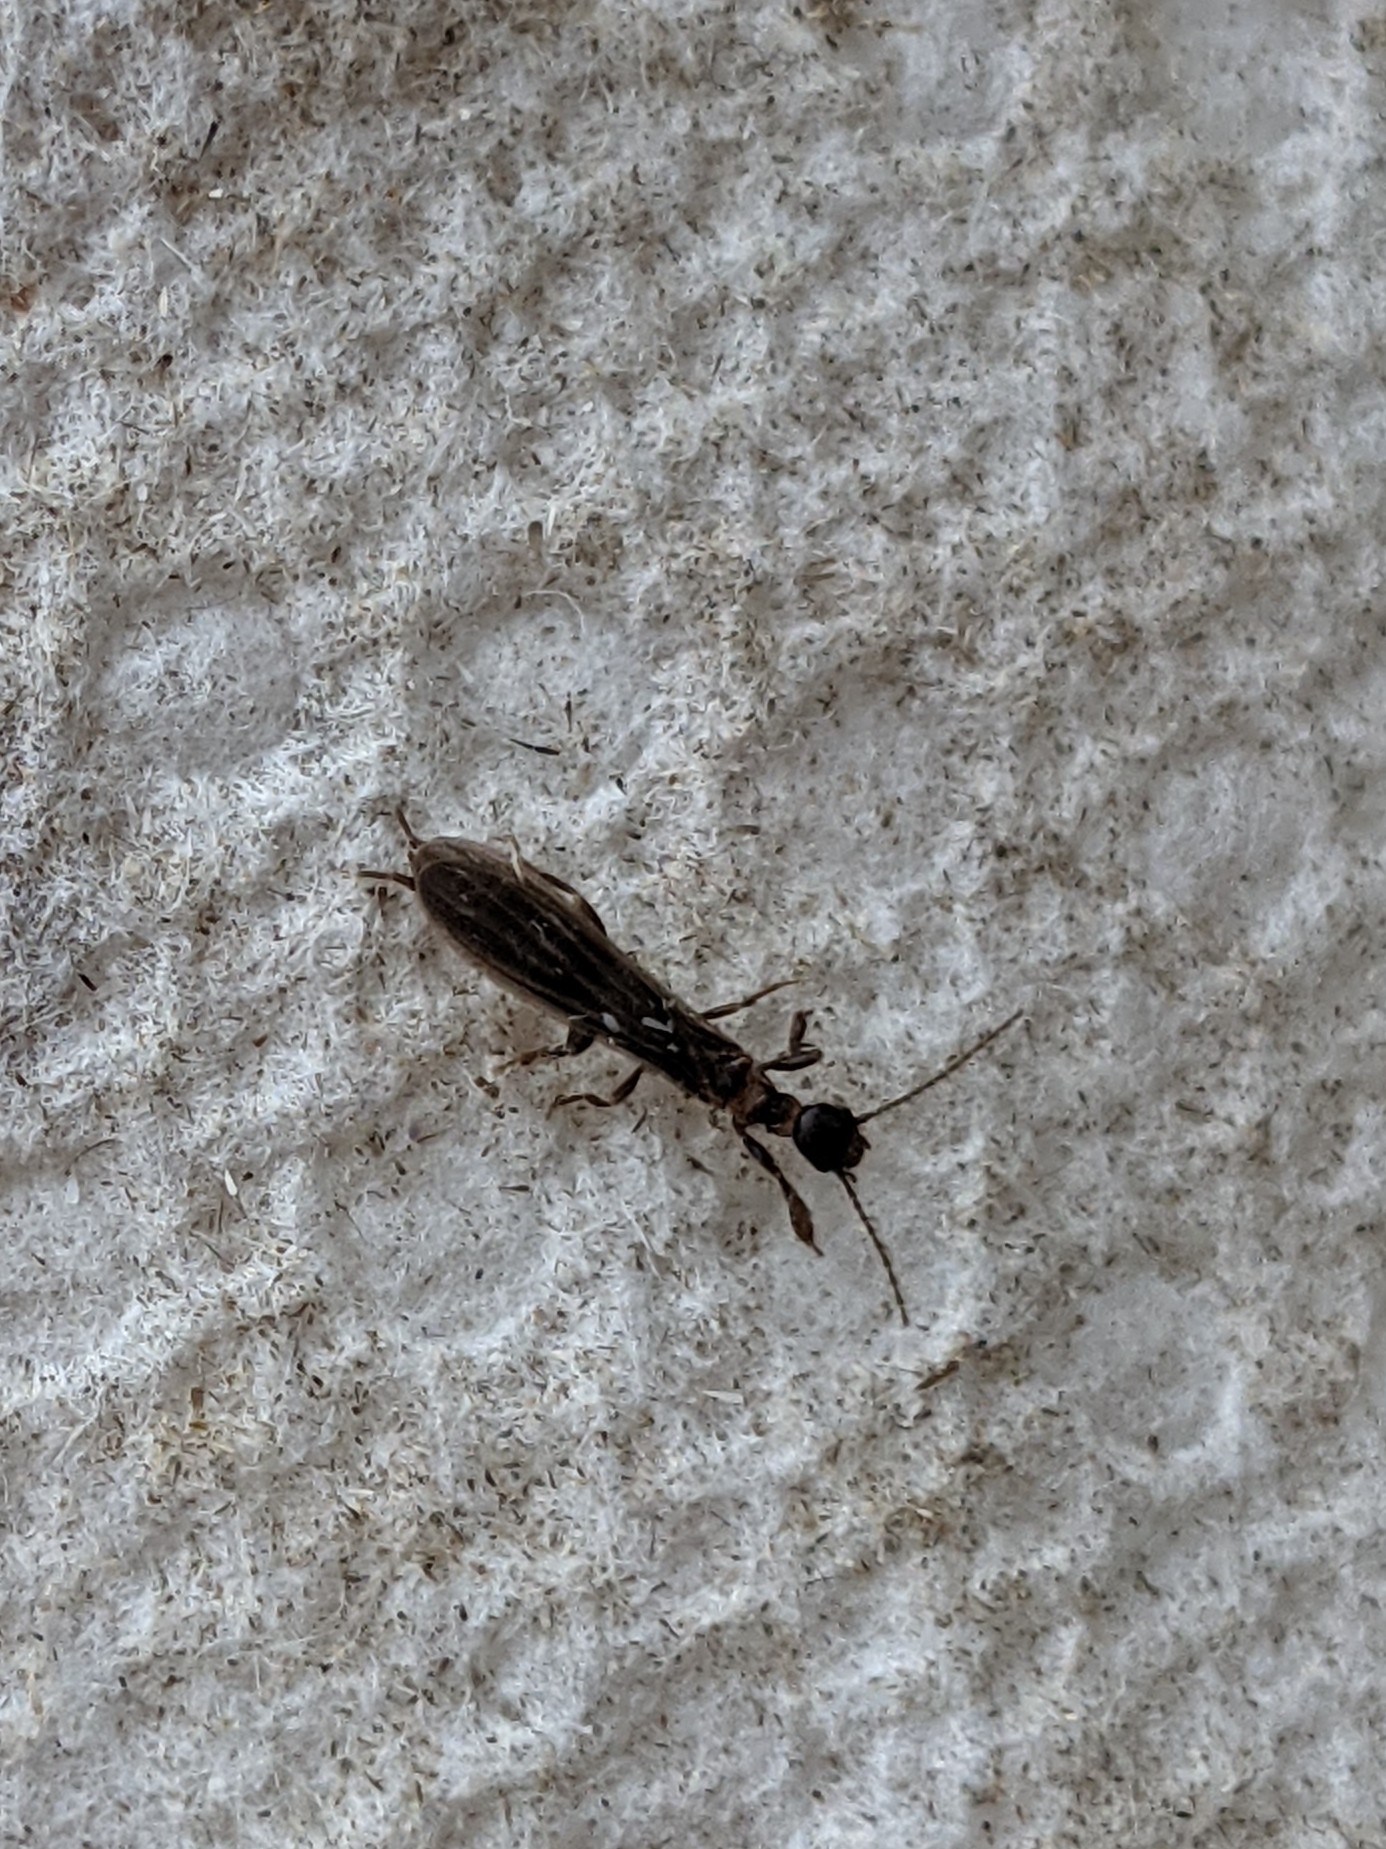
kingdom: Animalia
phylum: Arthropoda
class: Insecta
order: Embioptera
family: Oligotomidae
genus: Oligotoma
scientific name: Oligotoma nigra
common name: Black webspinner
